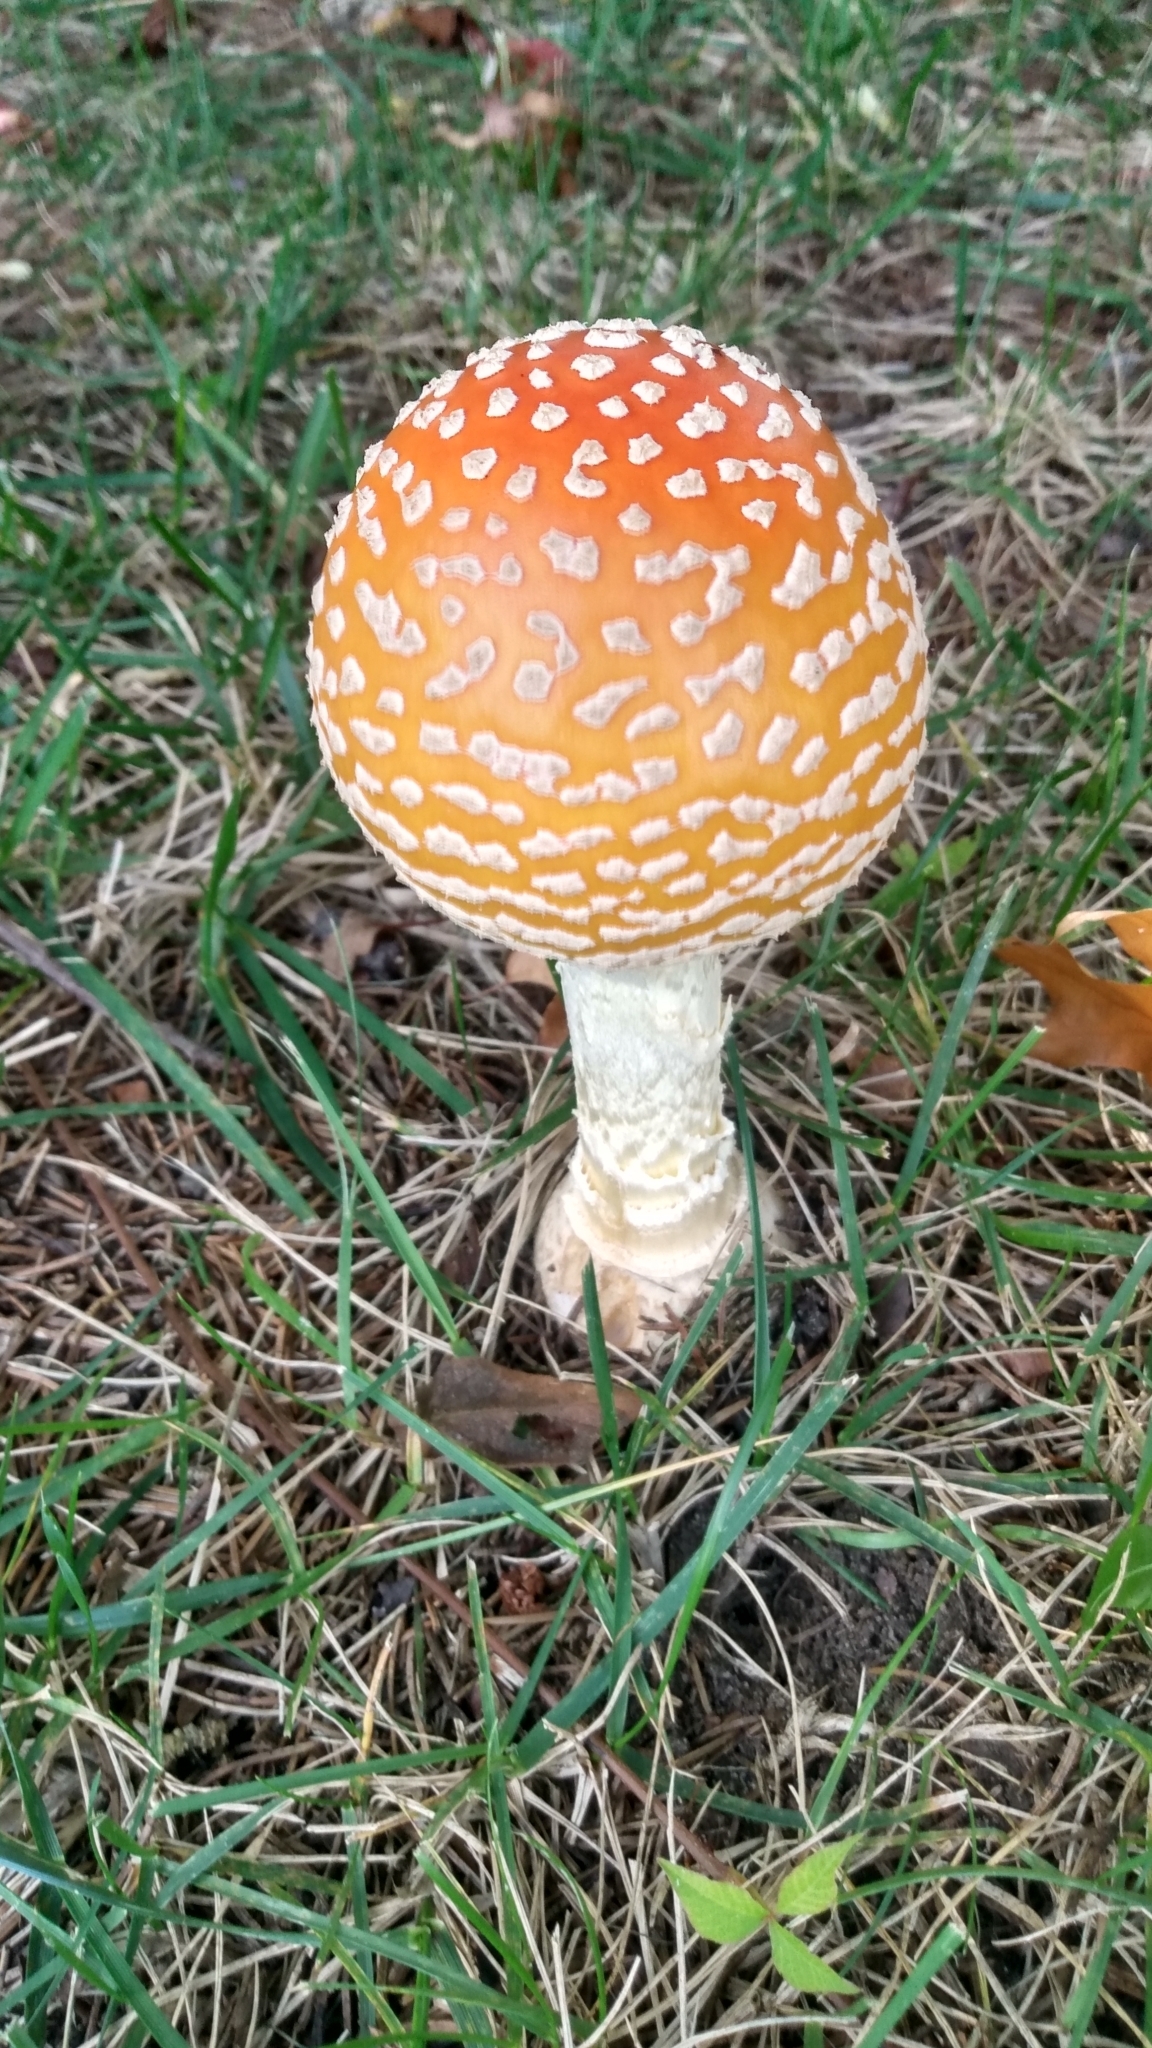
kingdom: Fungi
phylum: Basidiomycota
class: Agaricomycetes
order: Agaricales
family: Amanitaceae
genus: Amanita
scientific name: Amanita muscaria
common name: Fly agaric
